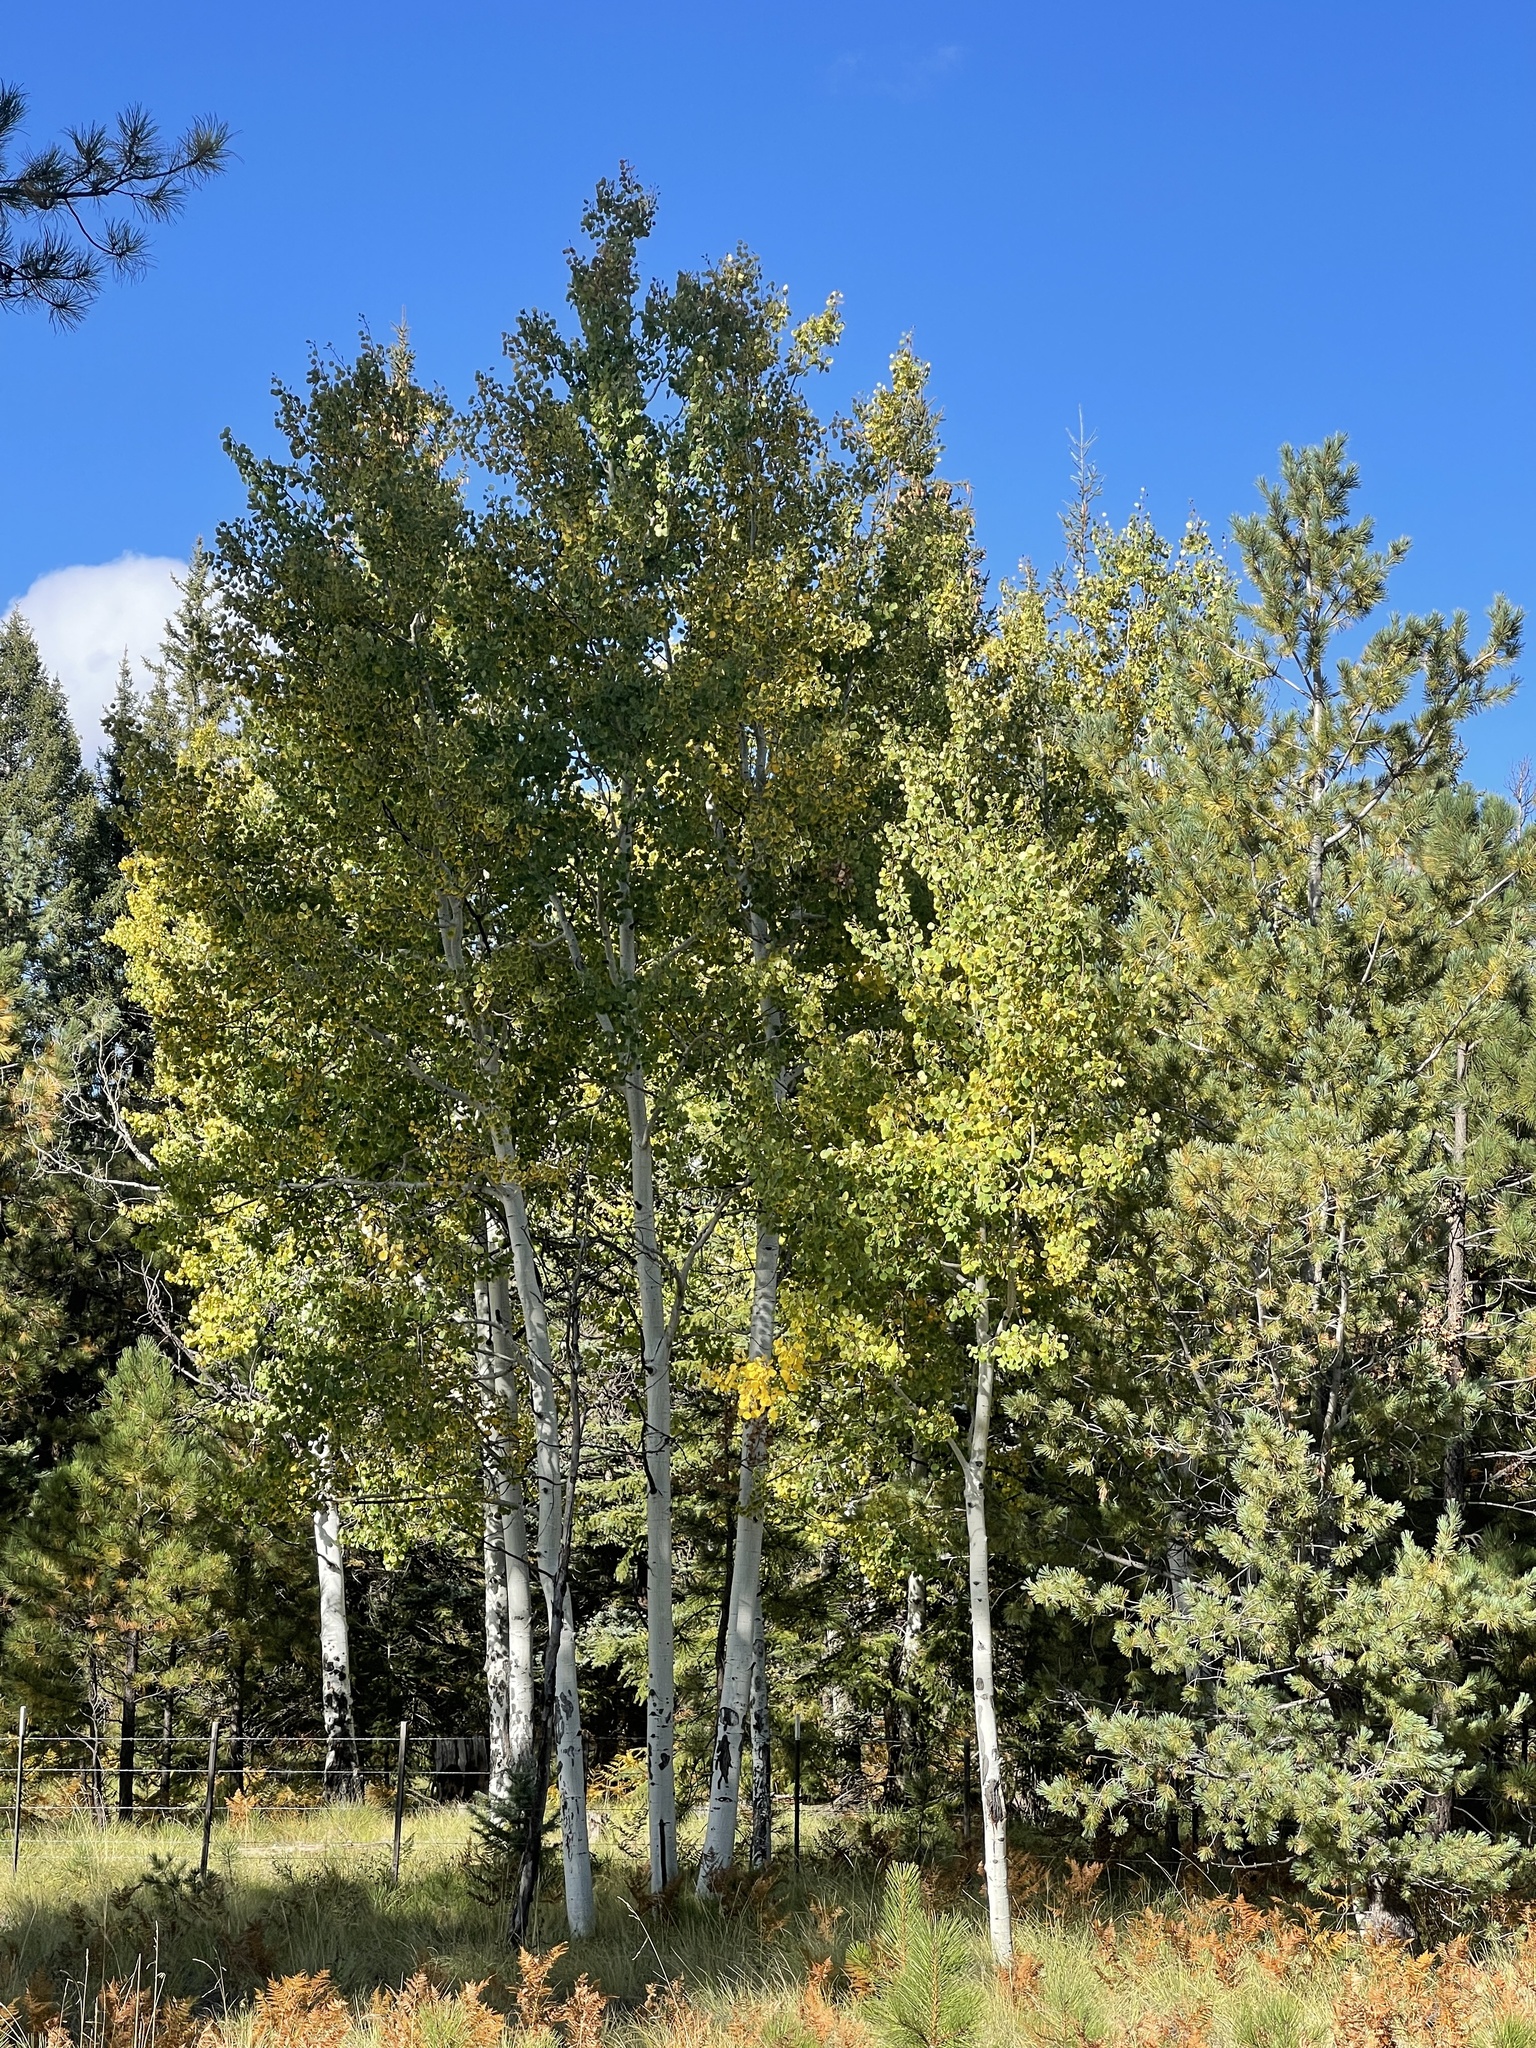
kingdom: Plantae
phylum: Tracheophyta
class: Magnoliopsida
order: Malpighiales
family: Salicaceae
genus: Populus
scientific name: Populus tremuloides
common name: Quaking aspen
